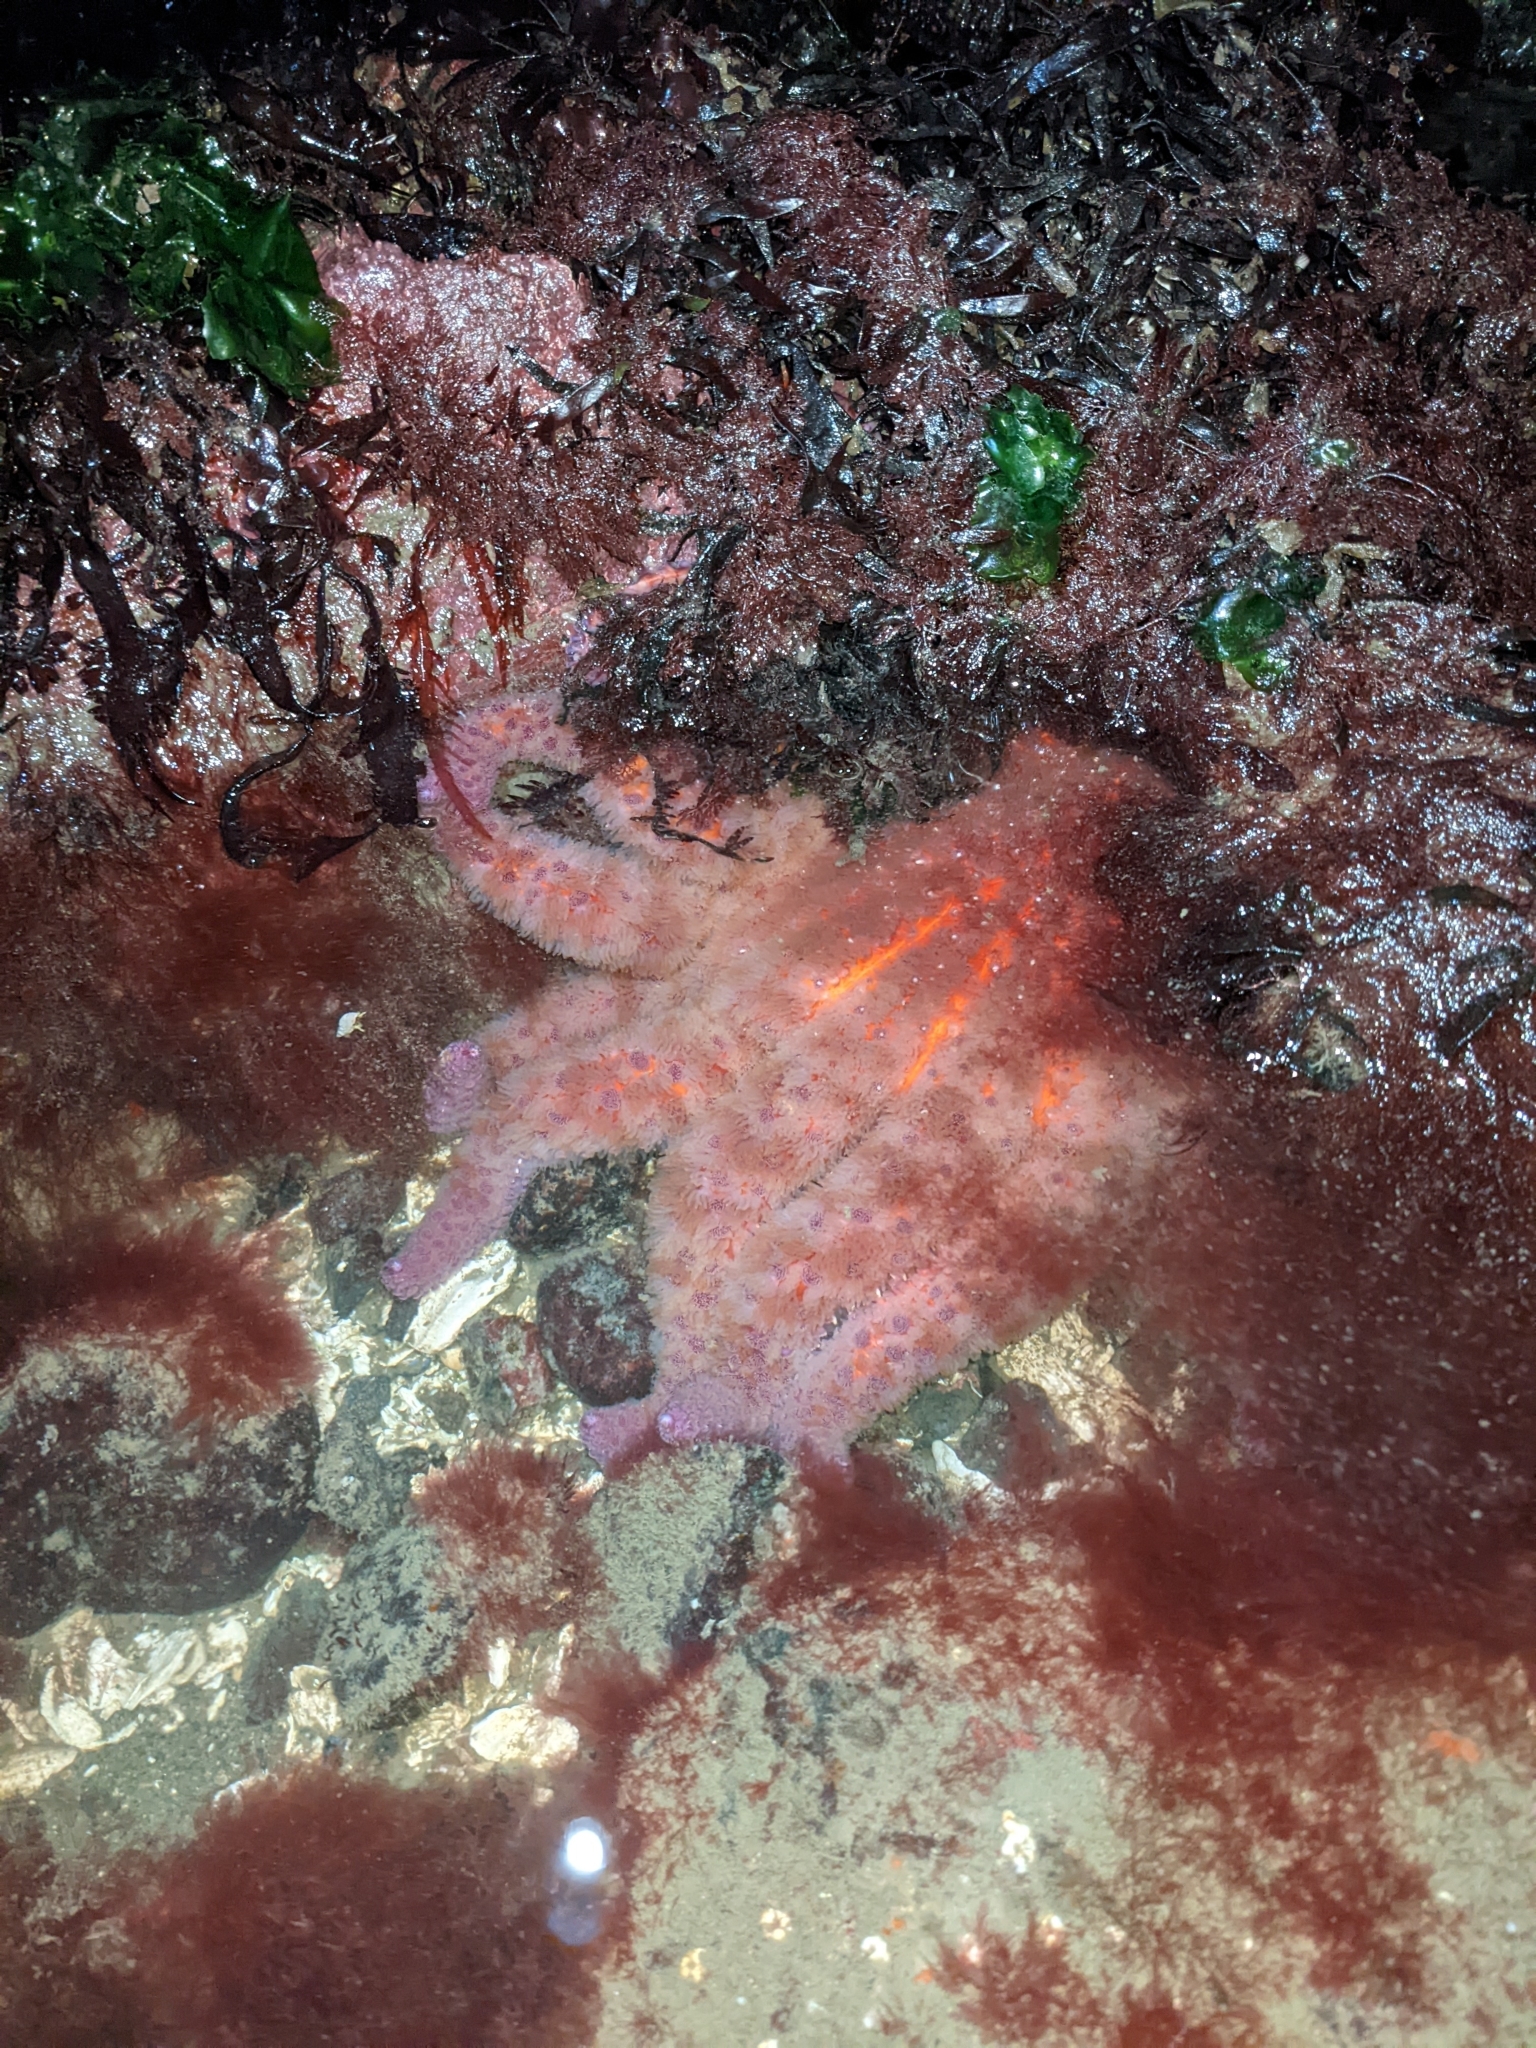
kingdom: Animalia
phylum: Echinodermata
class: Asteroidea
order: Forcipulatida
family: Asteriidae
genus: Pycnopodia
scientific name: Pycnopodia helianthoides
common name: Rag mop
